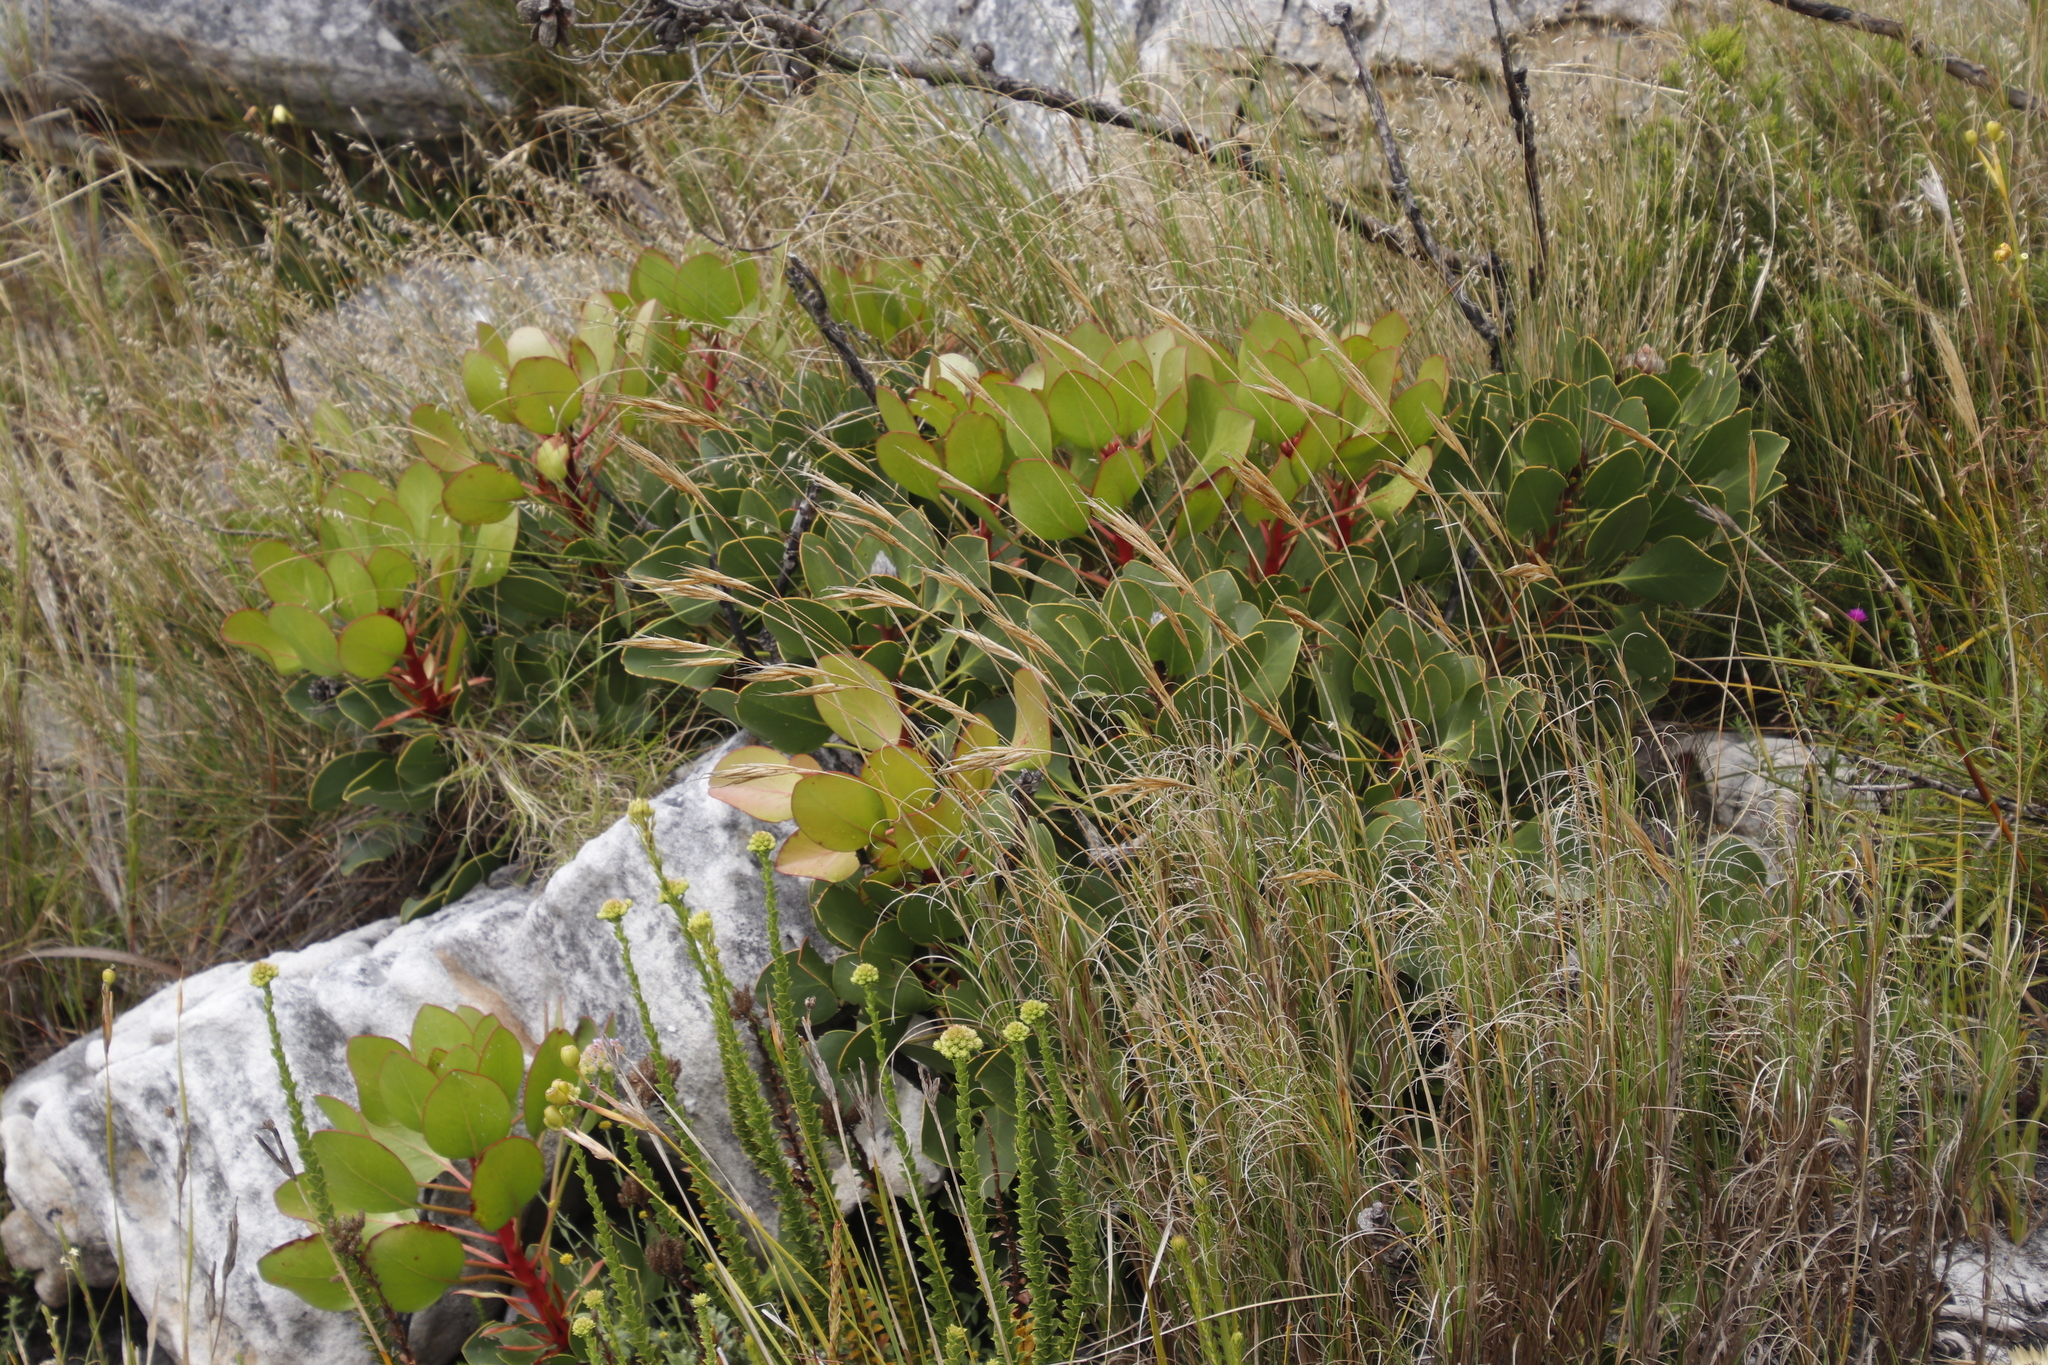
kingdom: Plantae
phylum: Tracheophyta
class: Magnoliopsida
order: Proteales
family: Proteaceae
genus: Protea
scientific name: Protea cynaroides
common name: King protea
